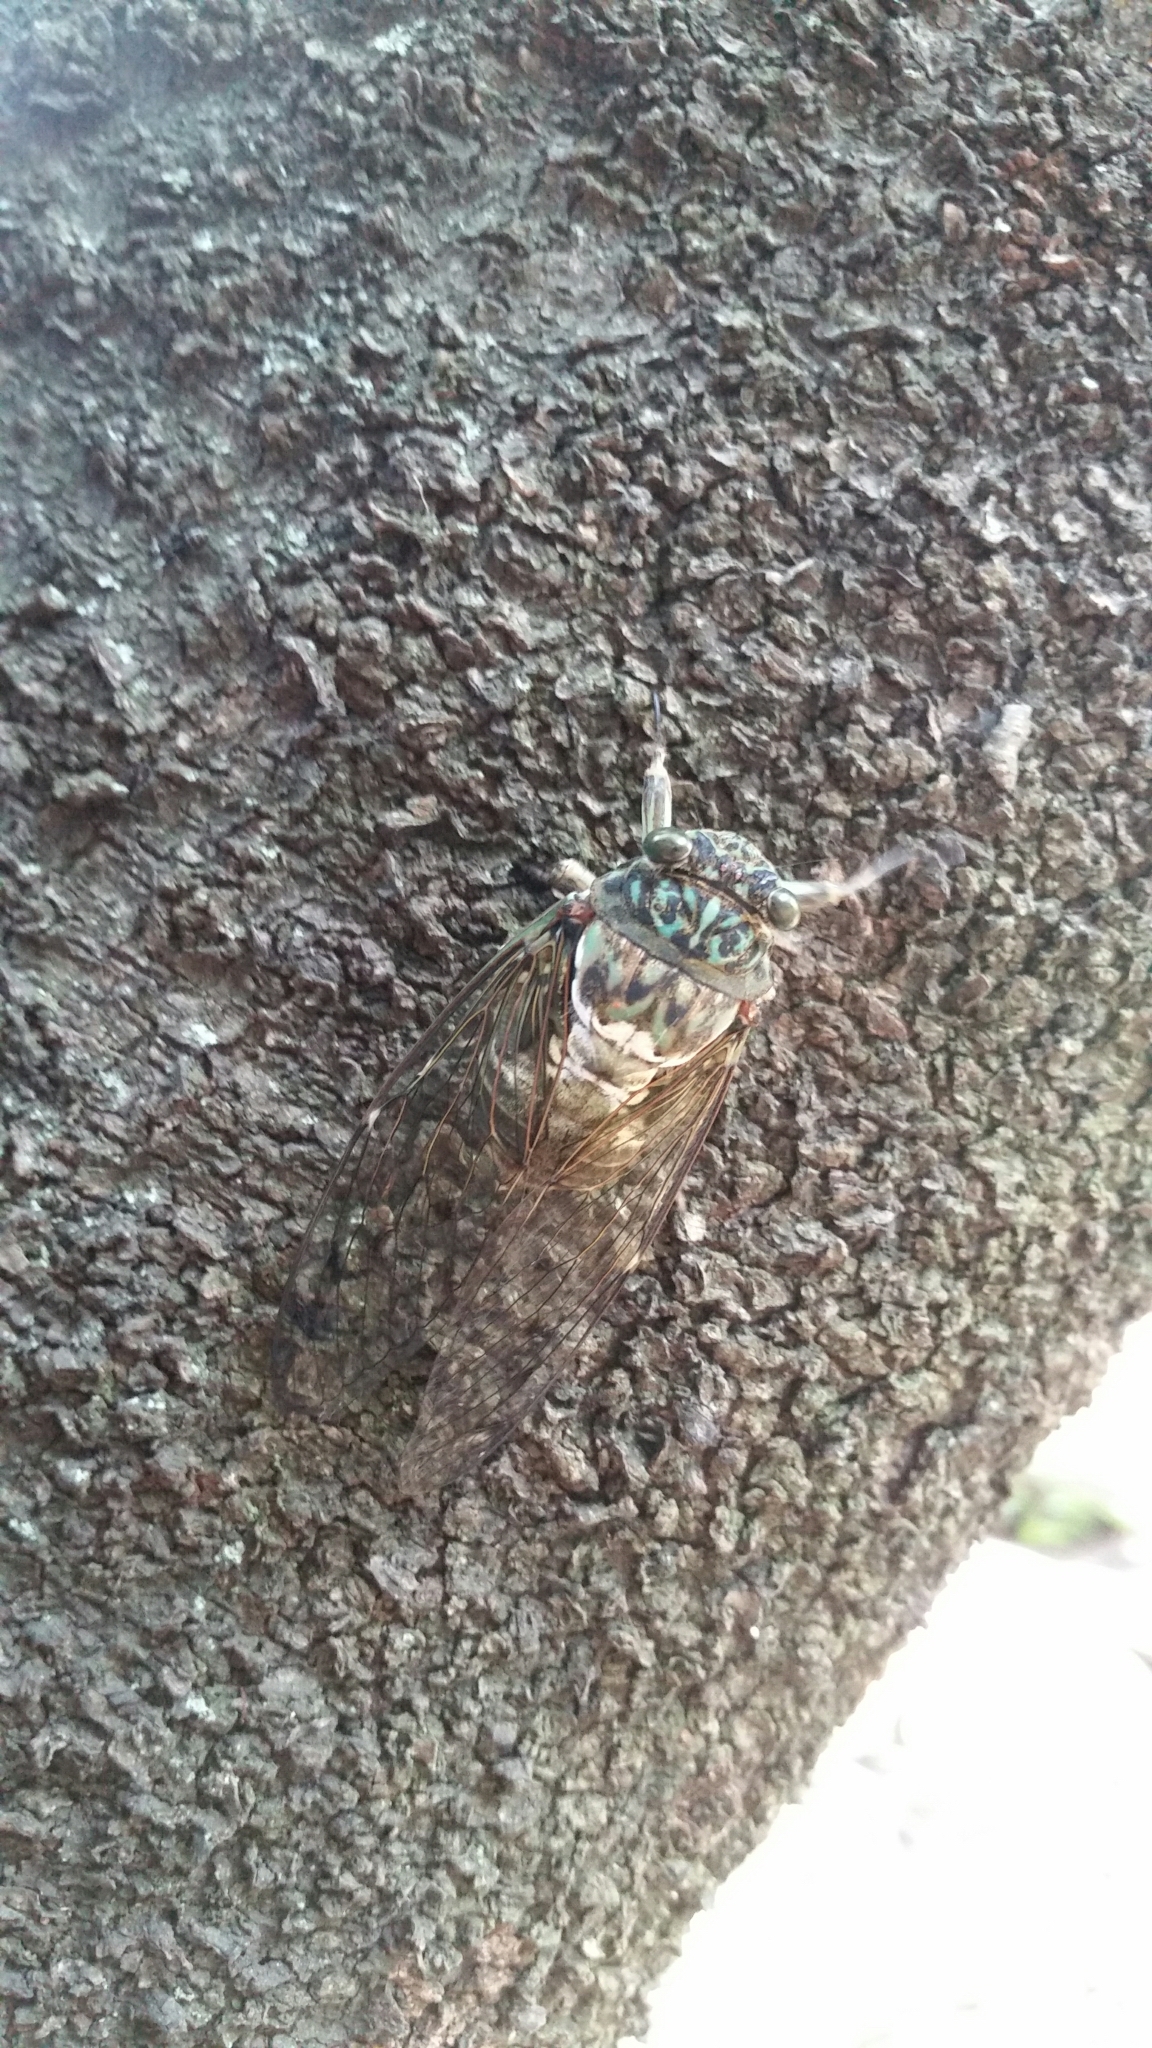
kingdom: Animalia
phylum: Arthropoda
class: Insecta
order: Hemiptera
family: Cicadidae
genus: Hyalessa
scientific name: Hyalessa maculaticollis
